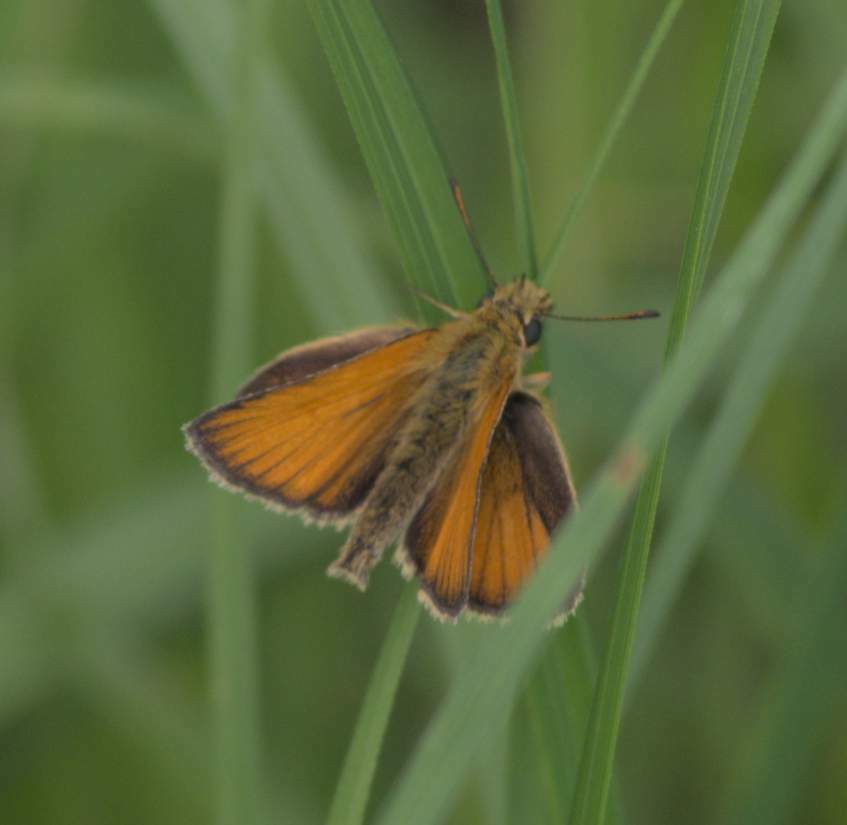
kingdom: Animalia
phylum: Arthropoda
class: Insecta
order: Lepidoptera
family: Hesperiidae
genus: Thymelicus
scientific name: Thymelicus lineola
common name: Essex skipper
